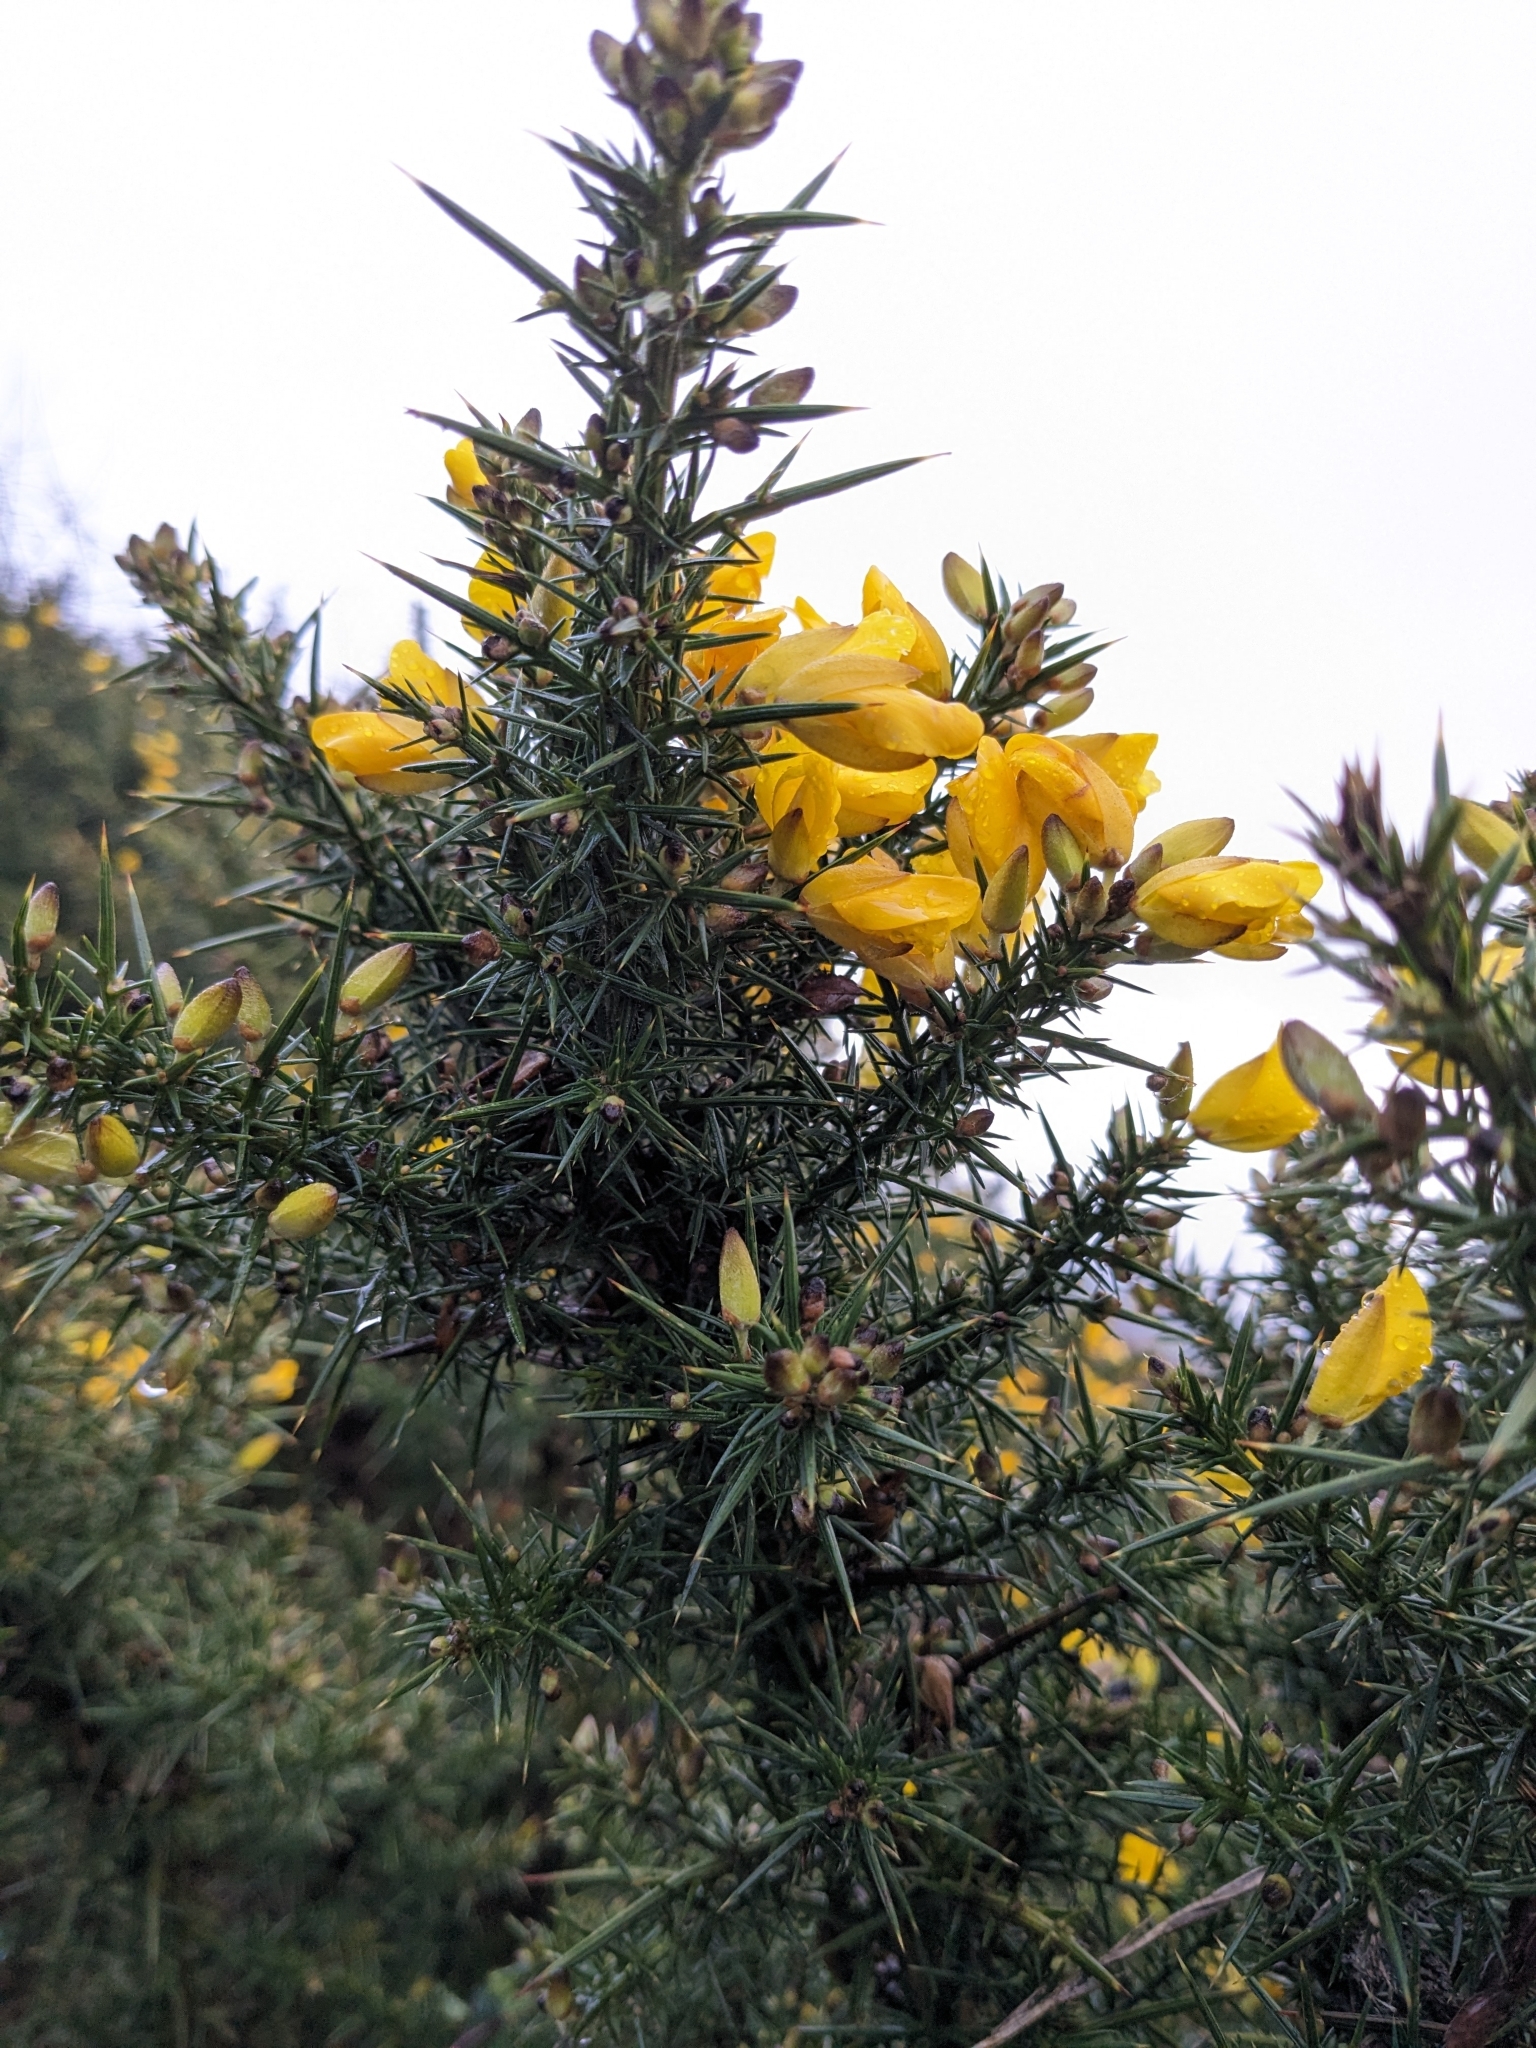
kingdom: Plantae
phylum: Tracheophyta
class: Magnoliopsida
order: Fabales
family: Fabaceae
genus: Ulex
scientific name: Ulex europaeus
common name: Common gorse
